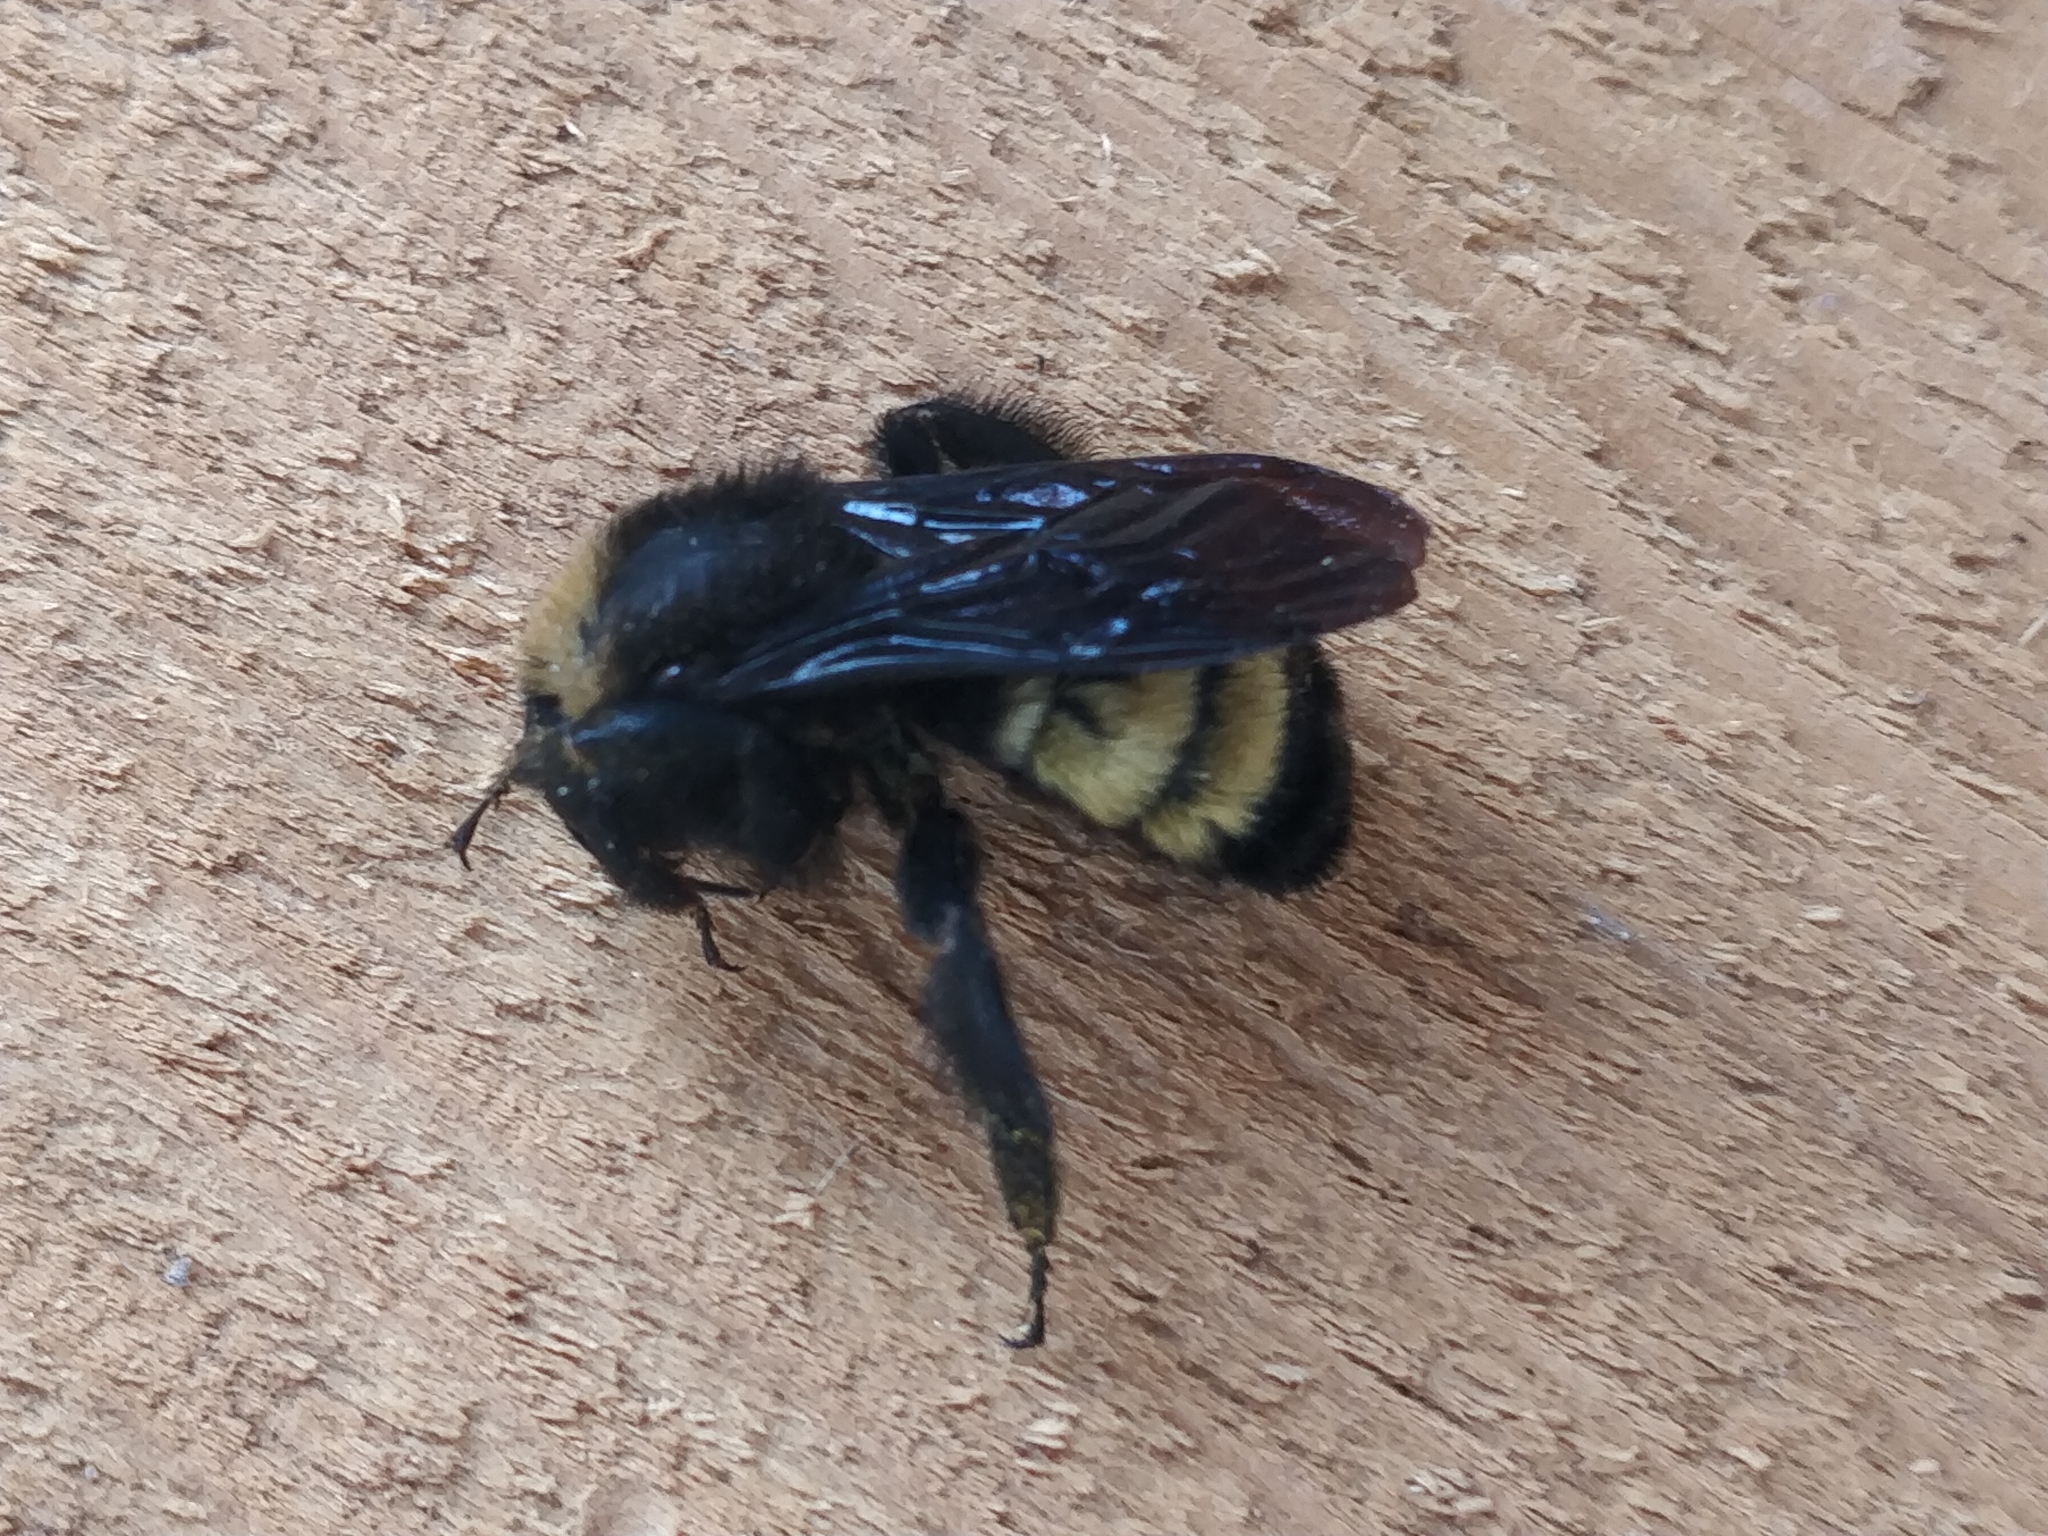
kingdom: Animalia
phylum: Arthropoda
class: Insecta
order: Hymenoptera
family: Apidae
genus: Bombus
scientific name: Bombus pensylvanicus
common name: Bumble bee
